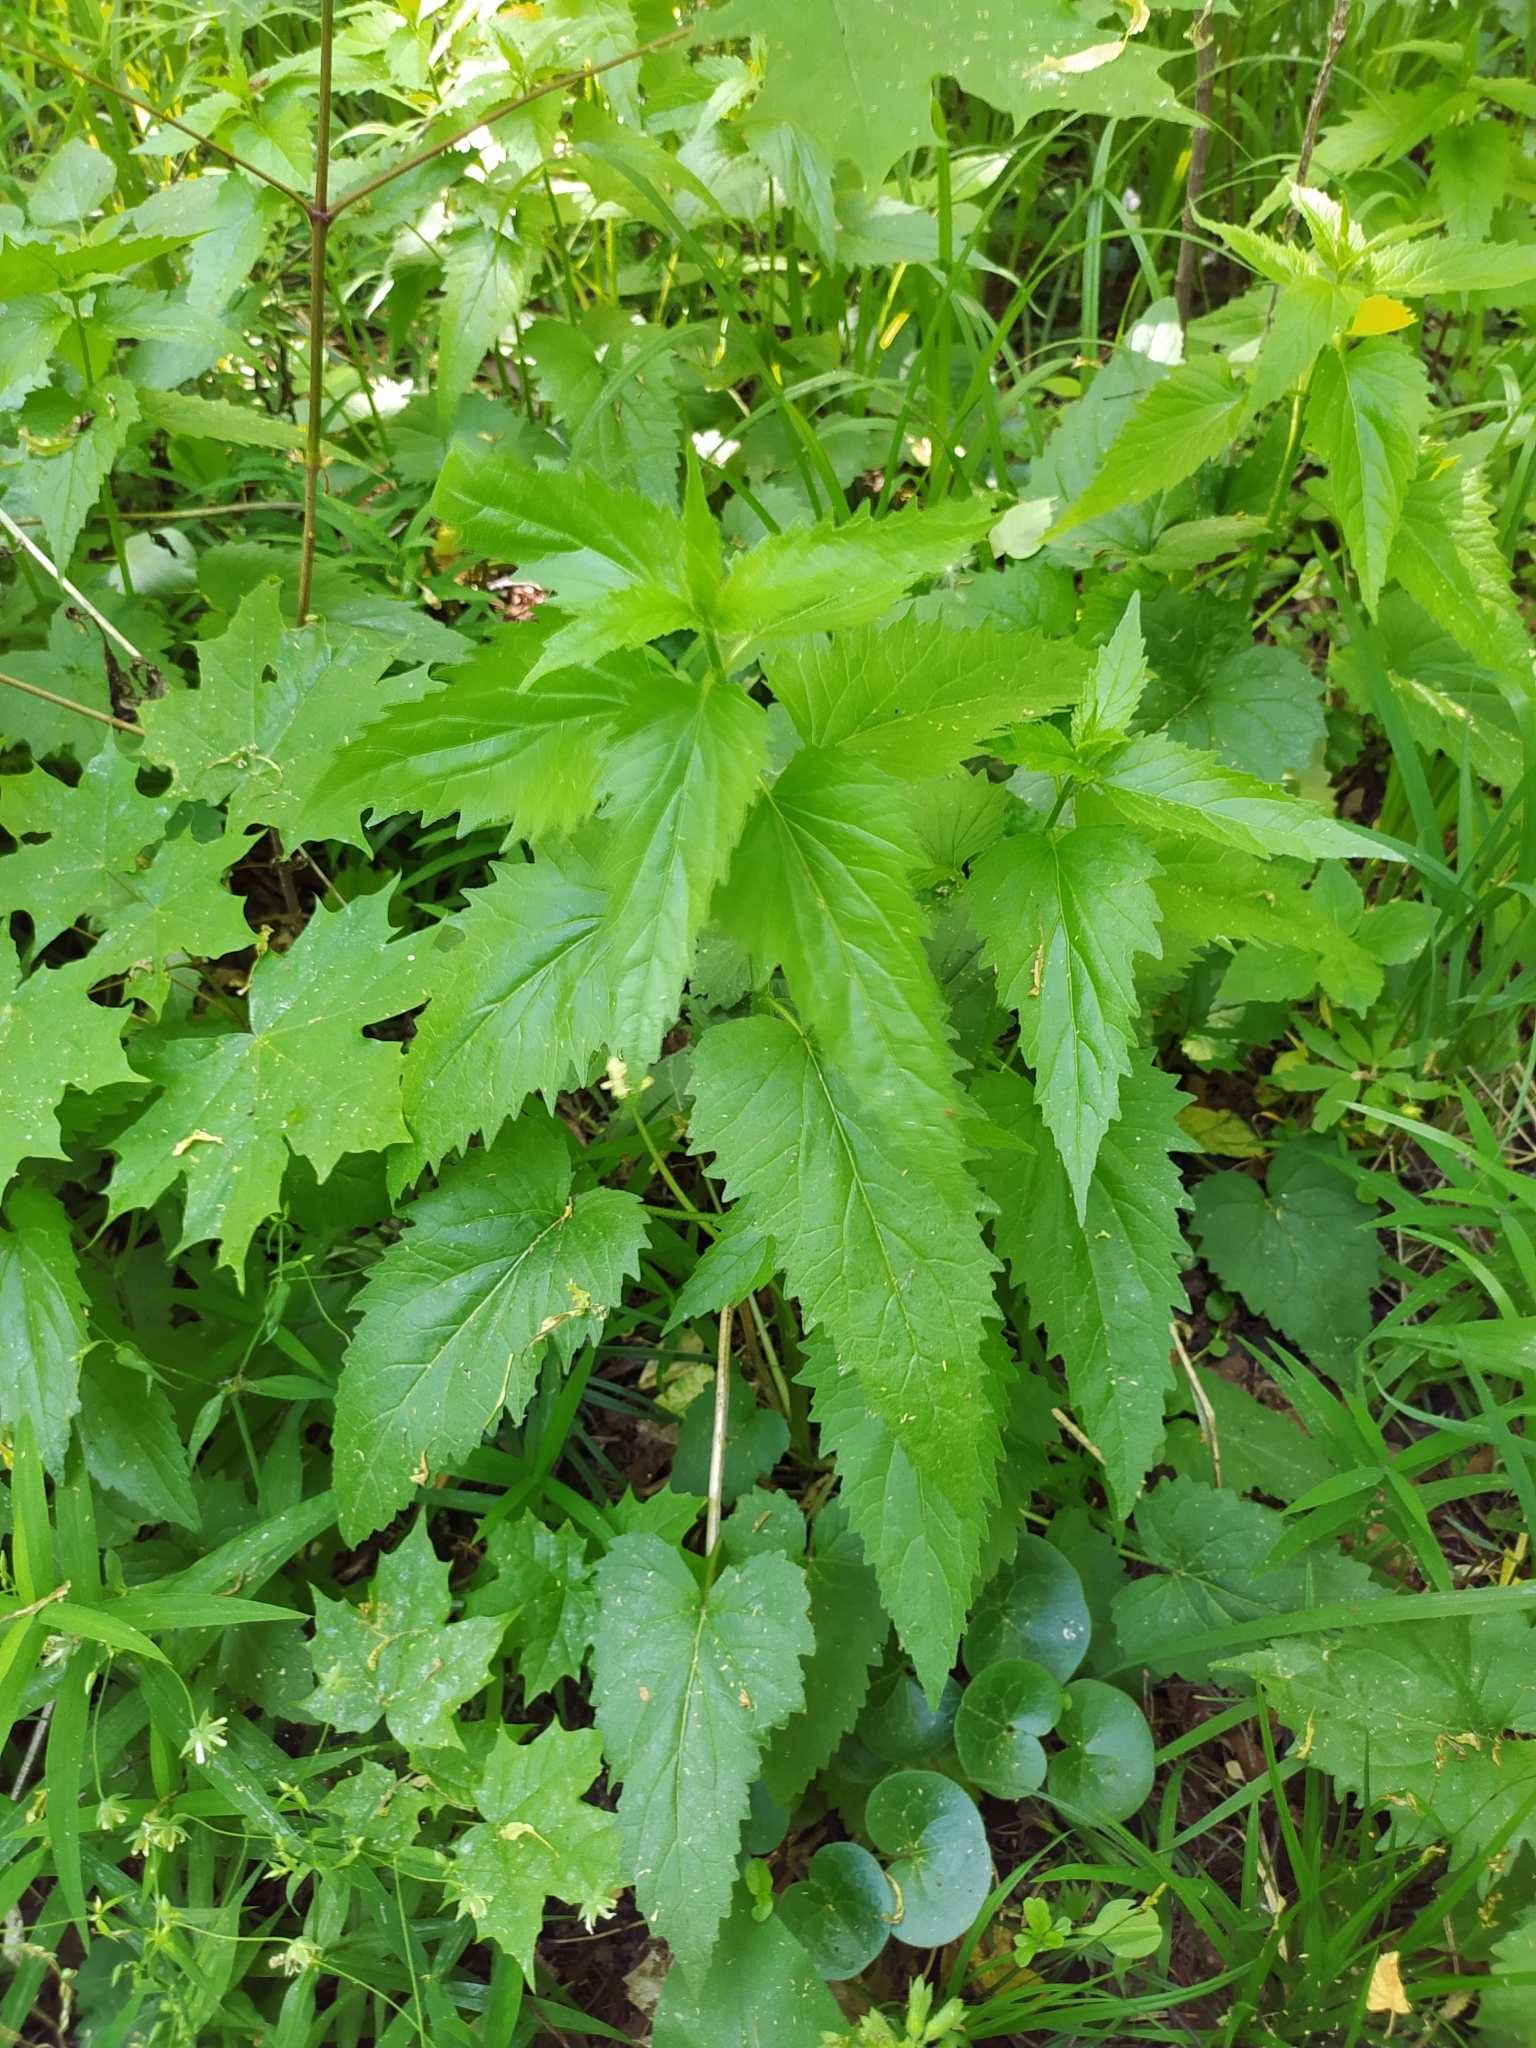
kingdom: Plantae
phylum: Tracheophyta
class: Magnoliopsida
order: Asterales
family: Campanulaceae
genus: Campanula
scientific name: Campanula trachelium
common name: Nettle-leaved bellflower
